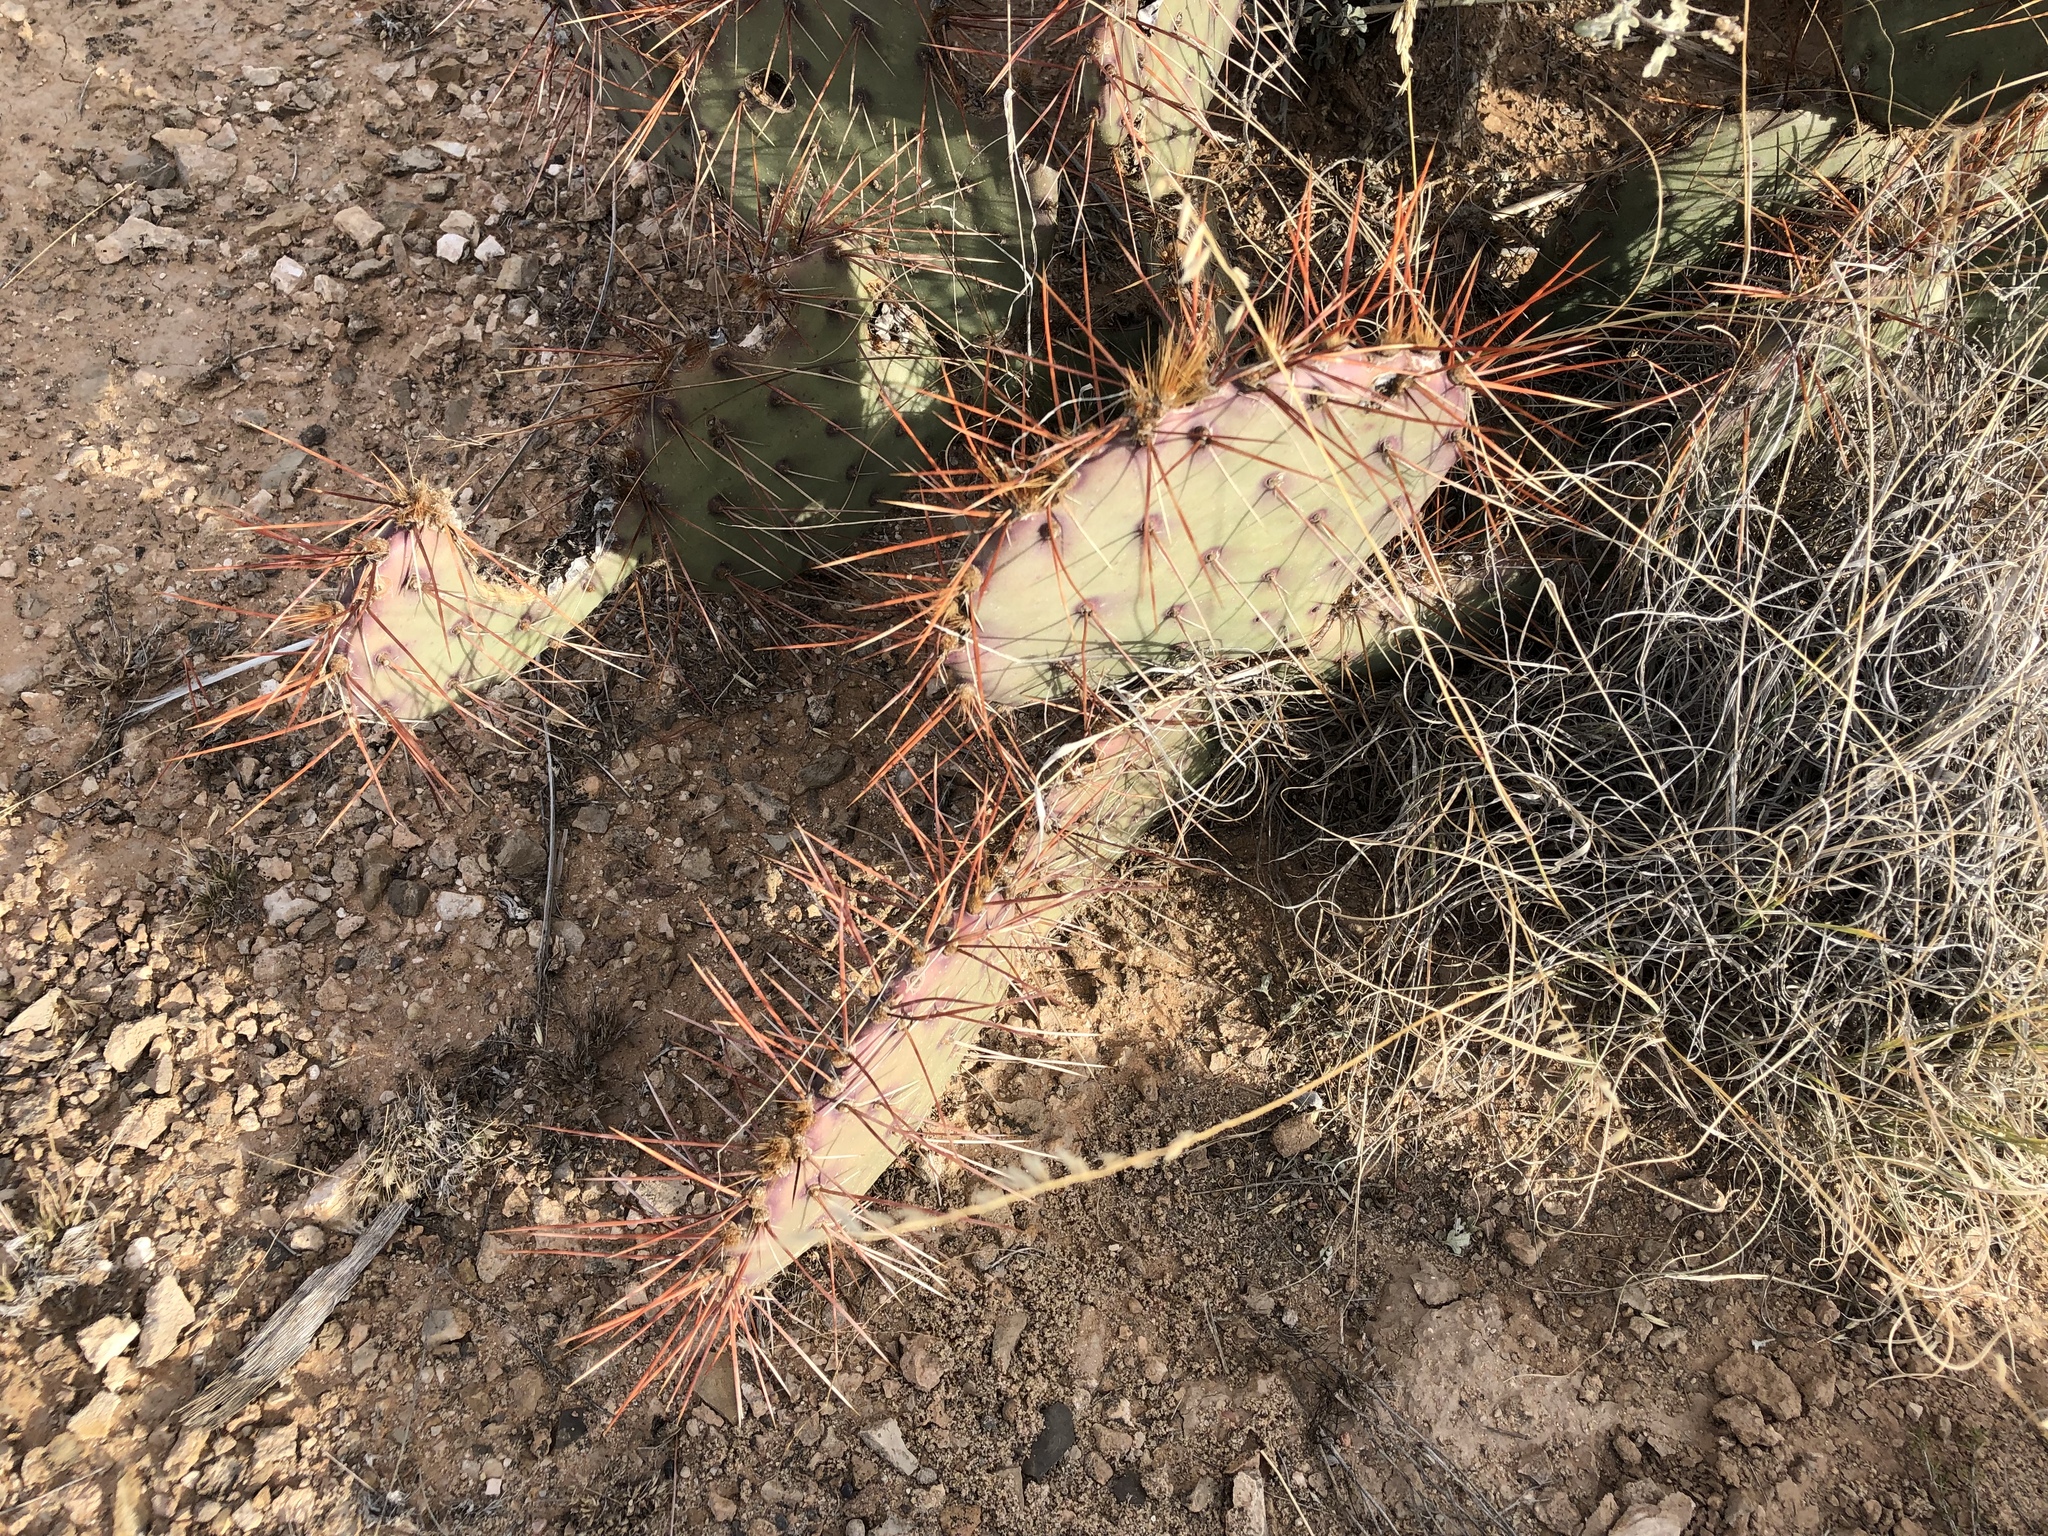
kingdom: Plantae
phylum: Tracheophyta
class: Magnoliopsida
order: Caryophyllales
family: Cactaceae
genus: Opuntia
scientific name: Opuntia phaeacantha
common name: New mexico prickly-pear
